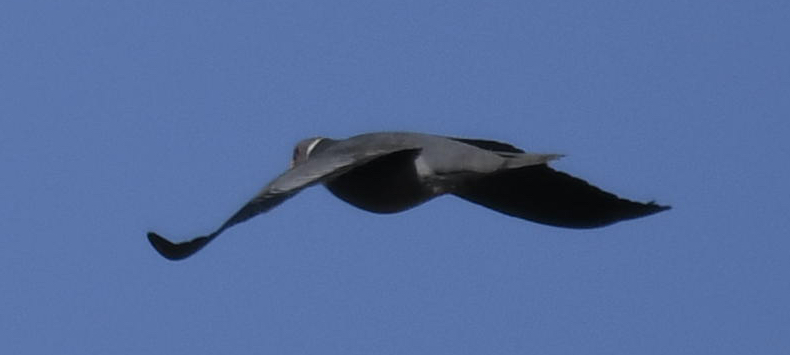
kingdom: Animalia
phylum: Chordata
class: Aves
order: Columbiformes
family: Columbidae
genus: Patagioenas
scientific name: Patagioenas fasciata
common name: Band-tailed pigeon
